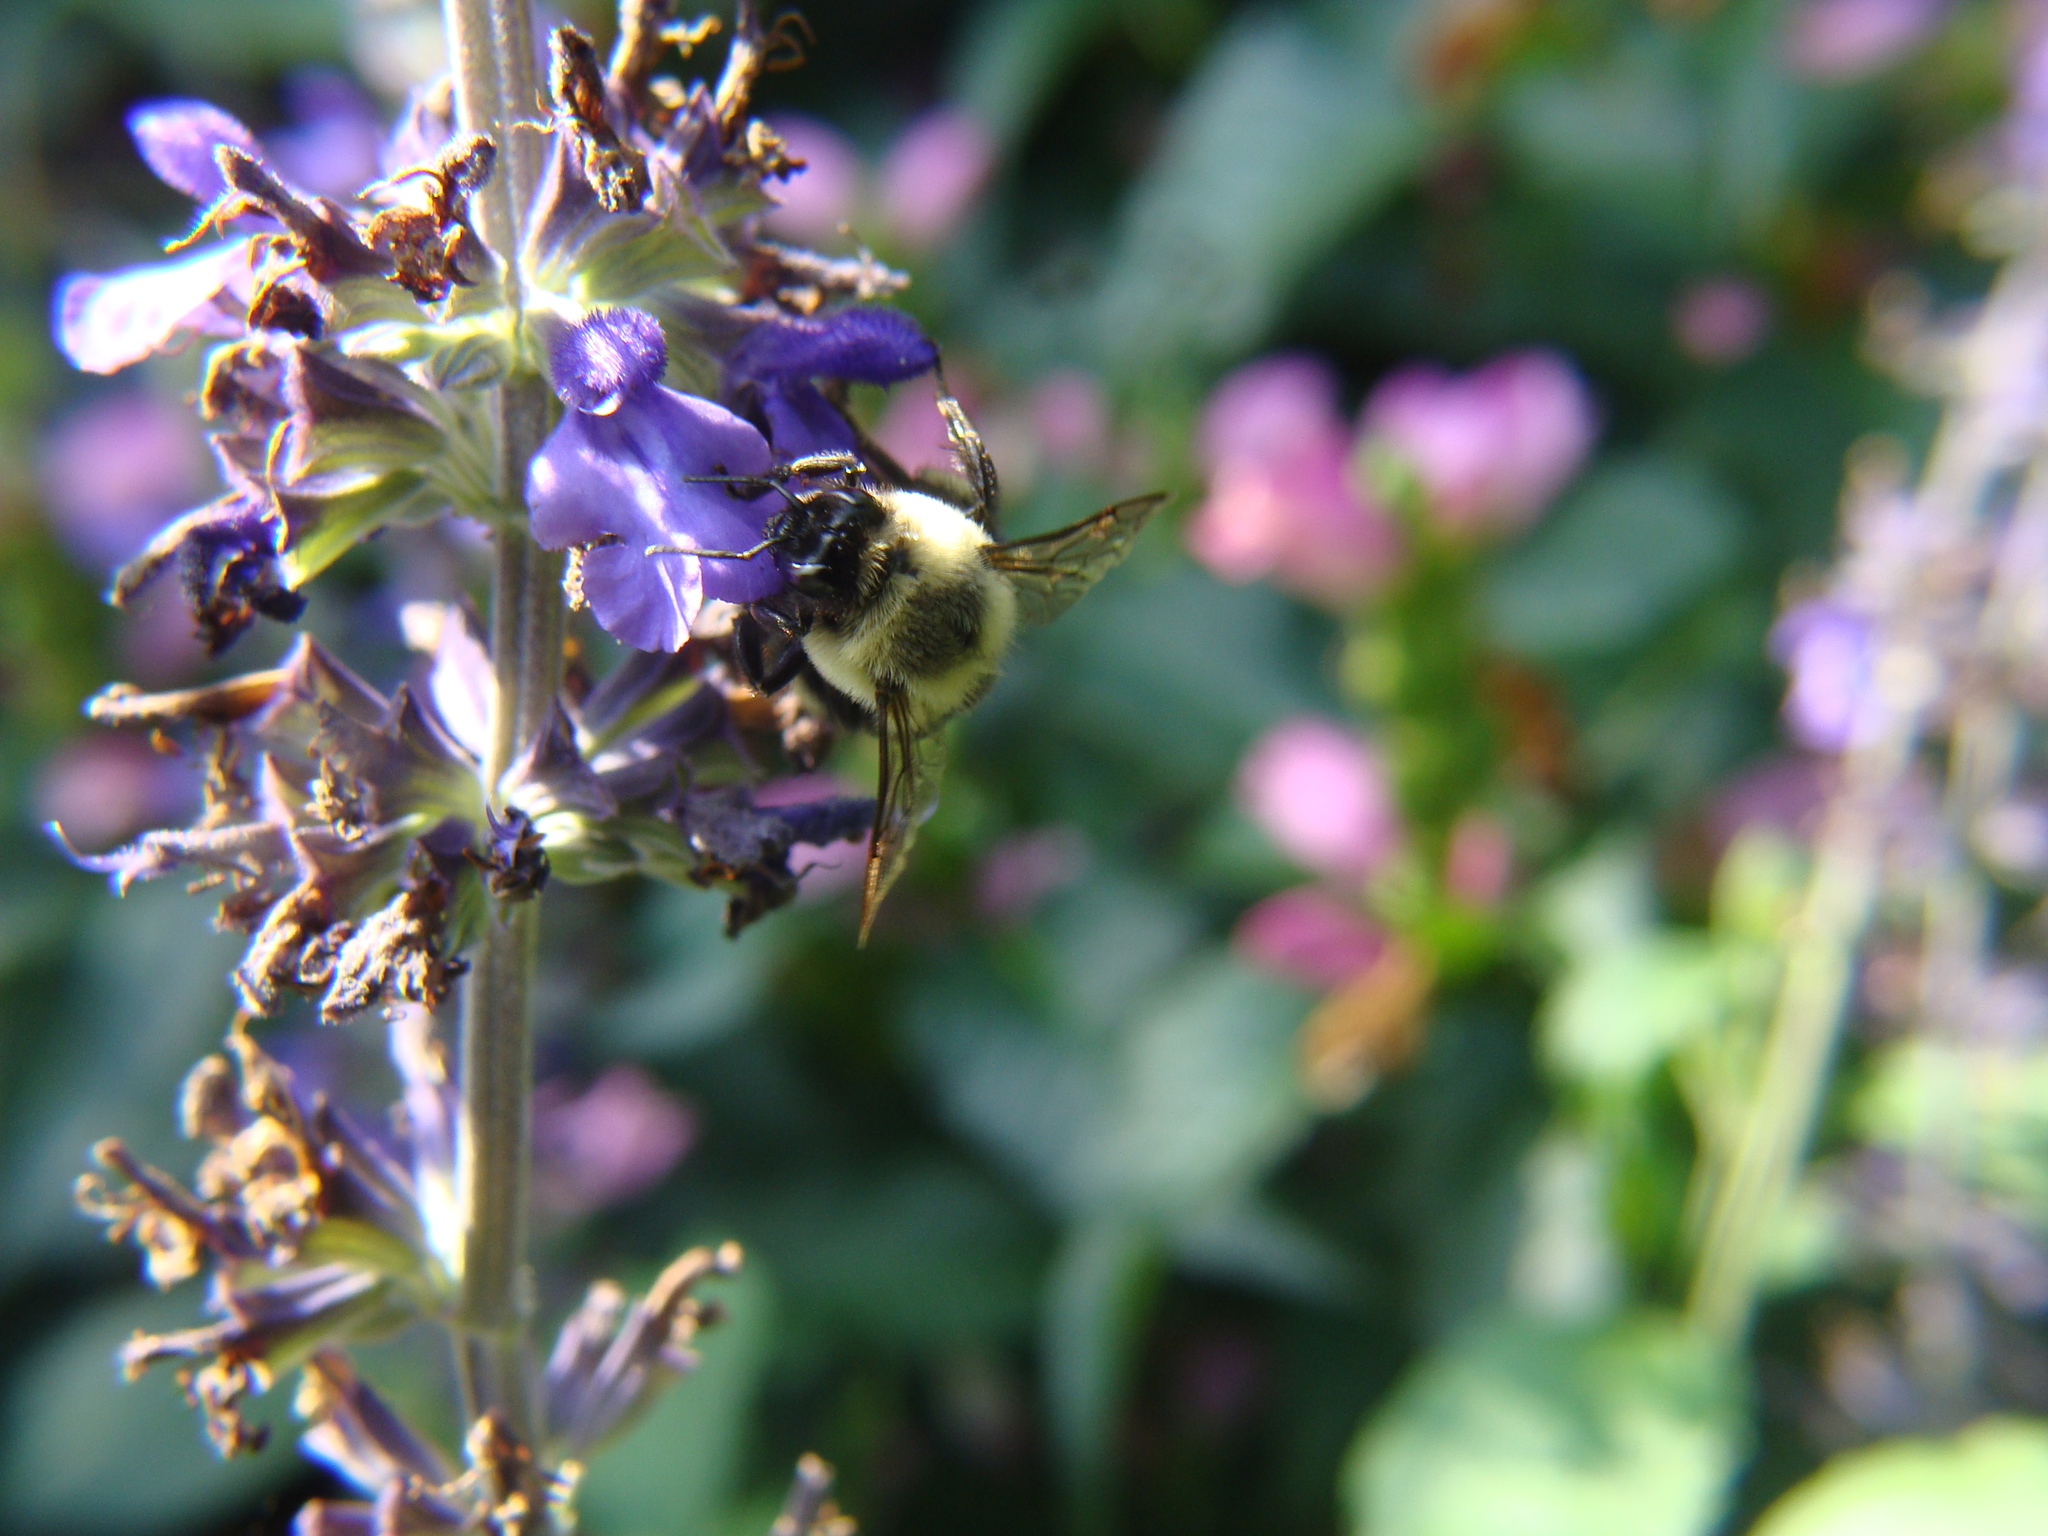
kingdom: Animalia
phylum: Arthropoda
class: Insecta
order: Hymenoptera
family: Apidae
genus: Bombus
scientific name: Bombus impatiens
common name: Common eastern bumble bee
